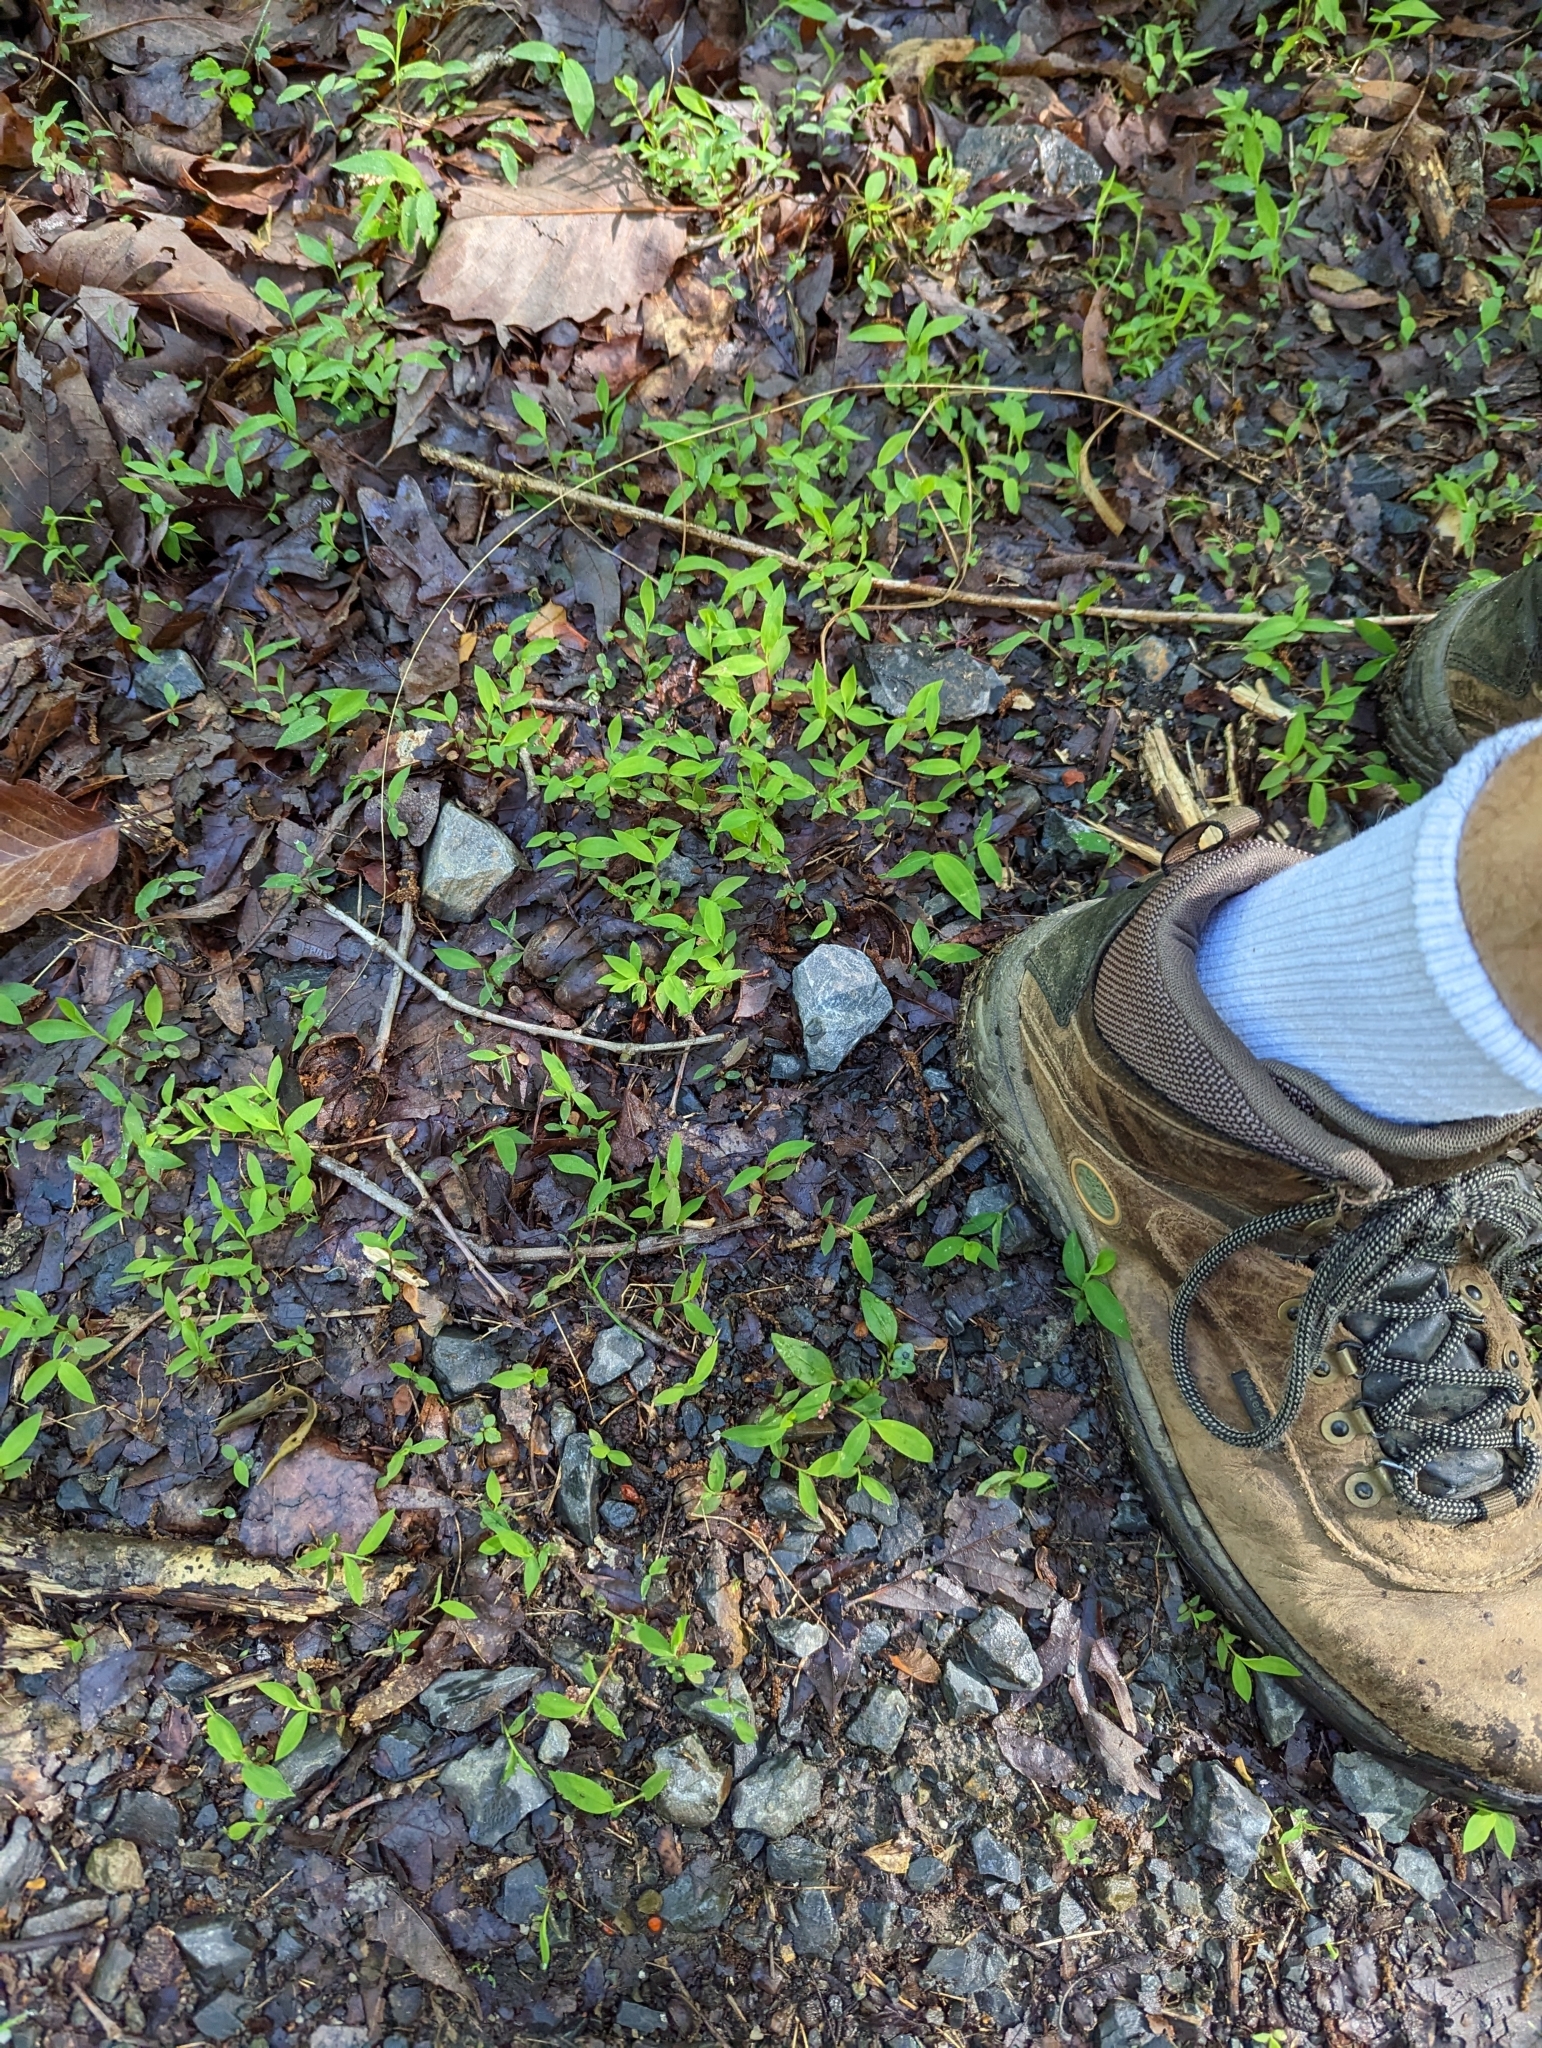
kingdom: Plantae
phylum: Tracheophyta
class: Liliopsida
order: Poales
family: Poaceae
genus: Microstegium
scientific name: Microstegium vimineum
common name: Japanese stiltgrass
